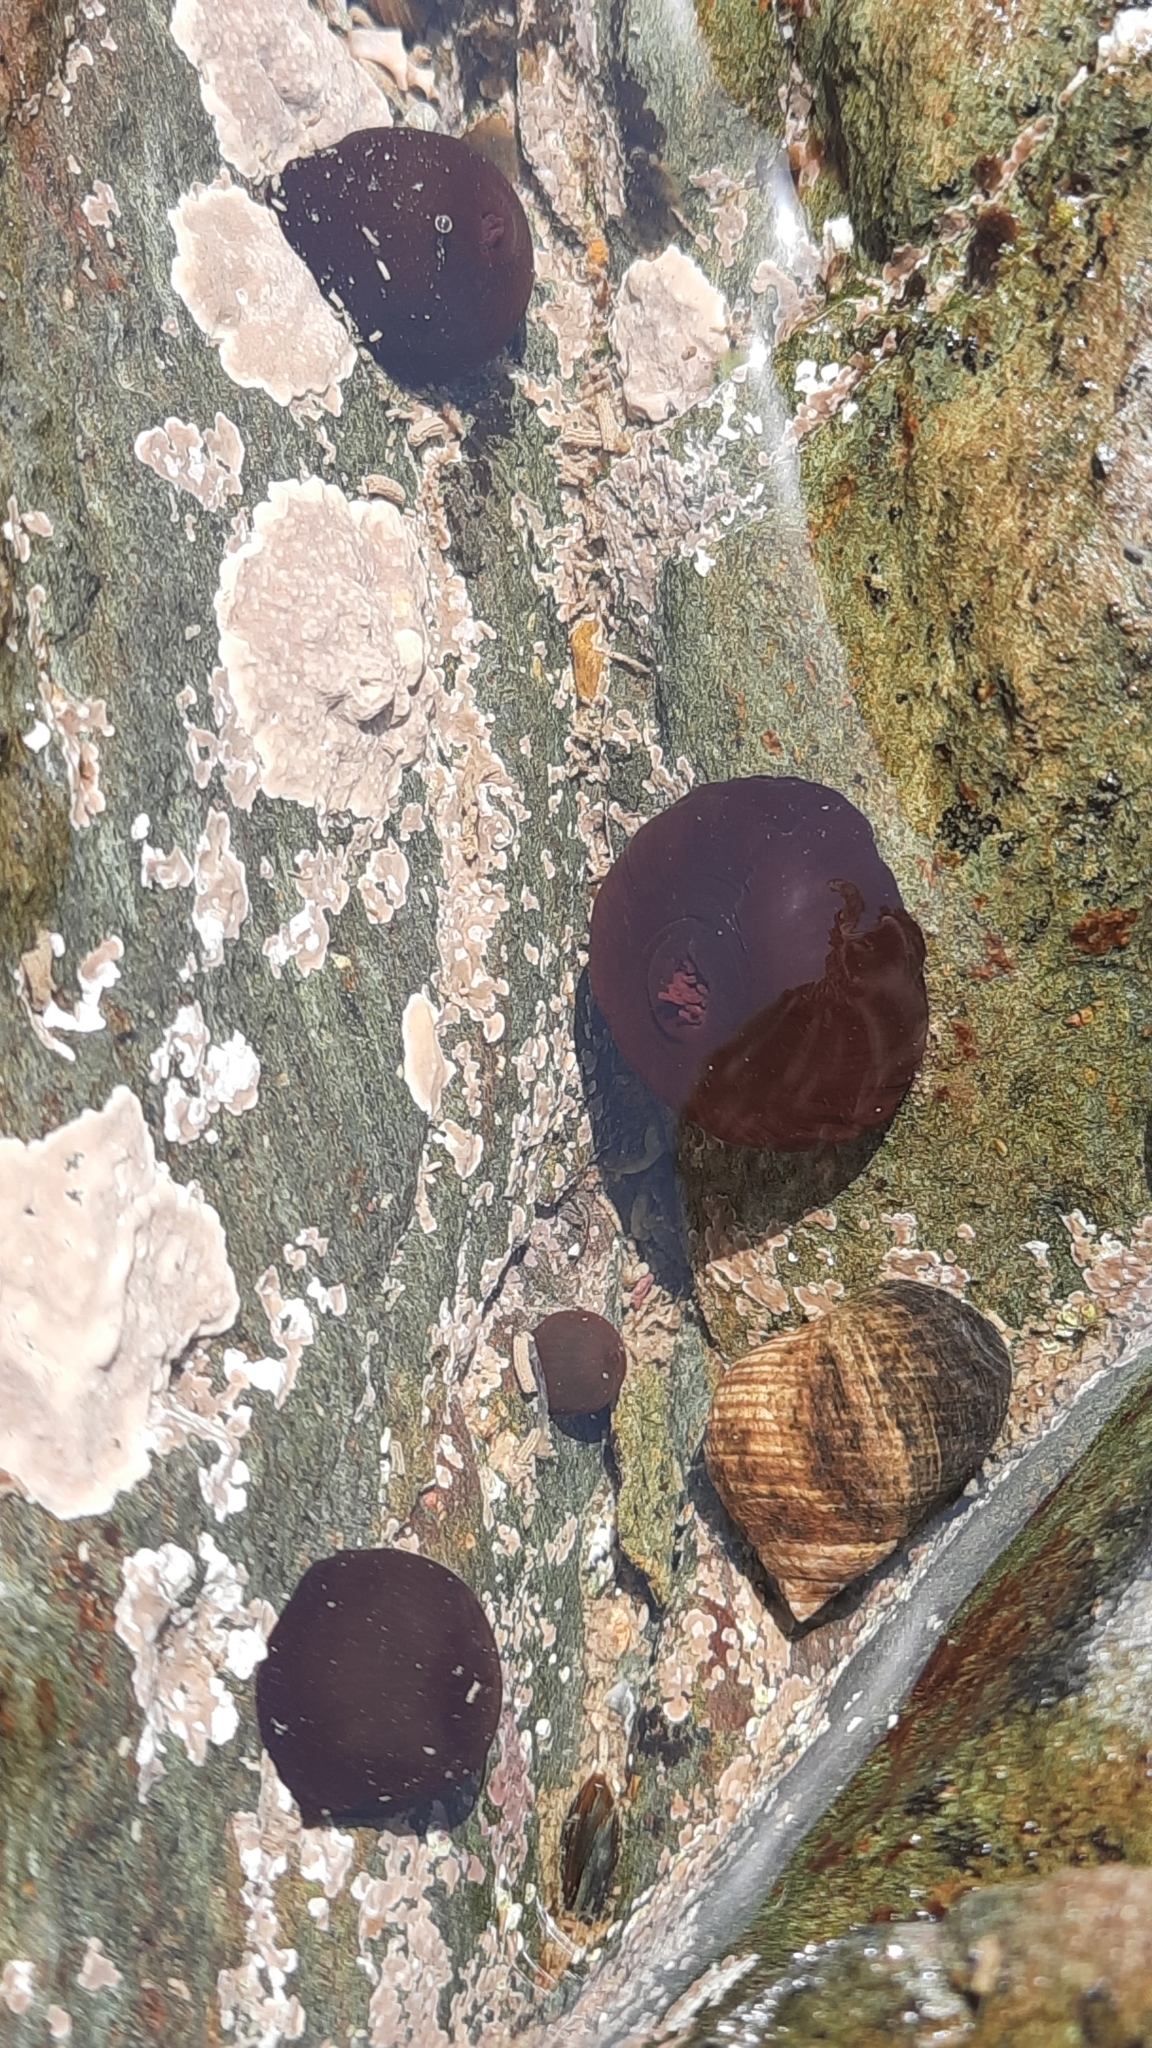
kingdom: Animalia
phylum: Cnidaria
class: Anthozoa
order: Actiniaria
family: Actiniidae
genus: Actinia
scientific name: Actinia equina
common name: Beadlet anemone
